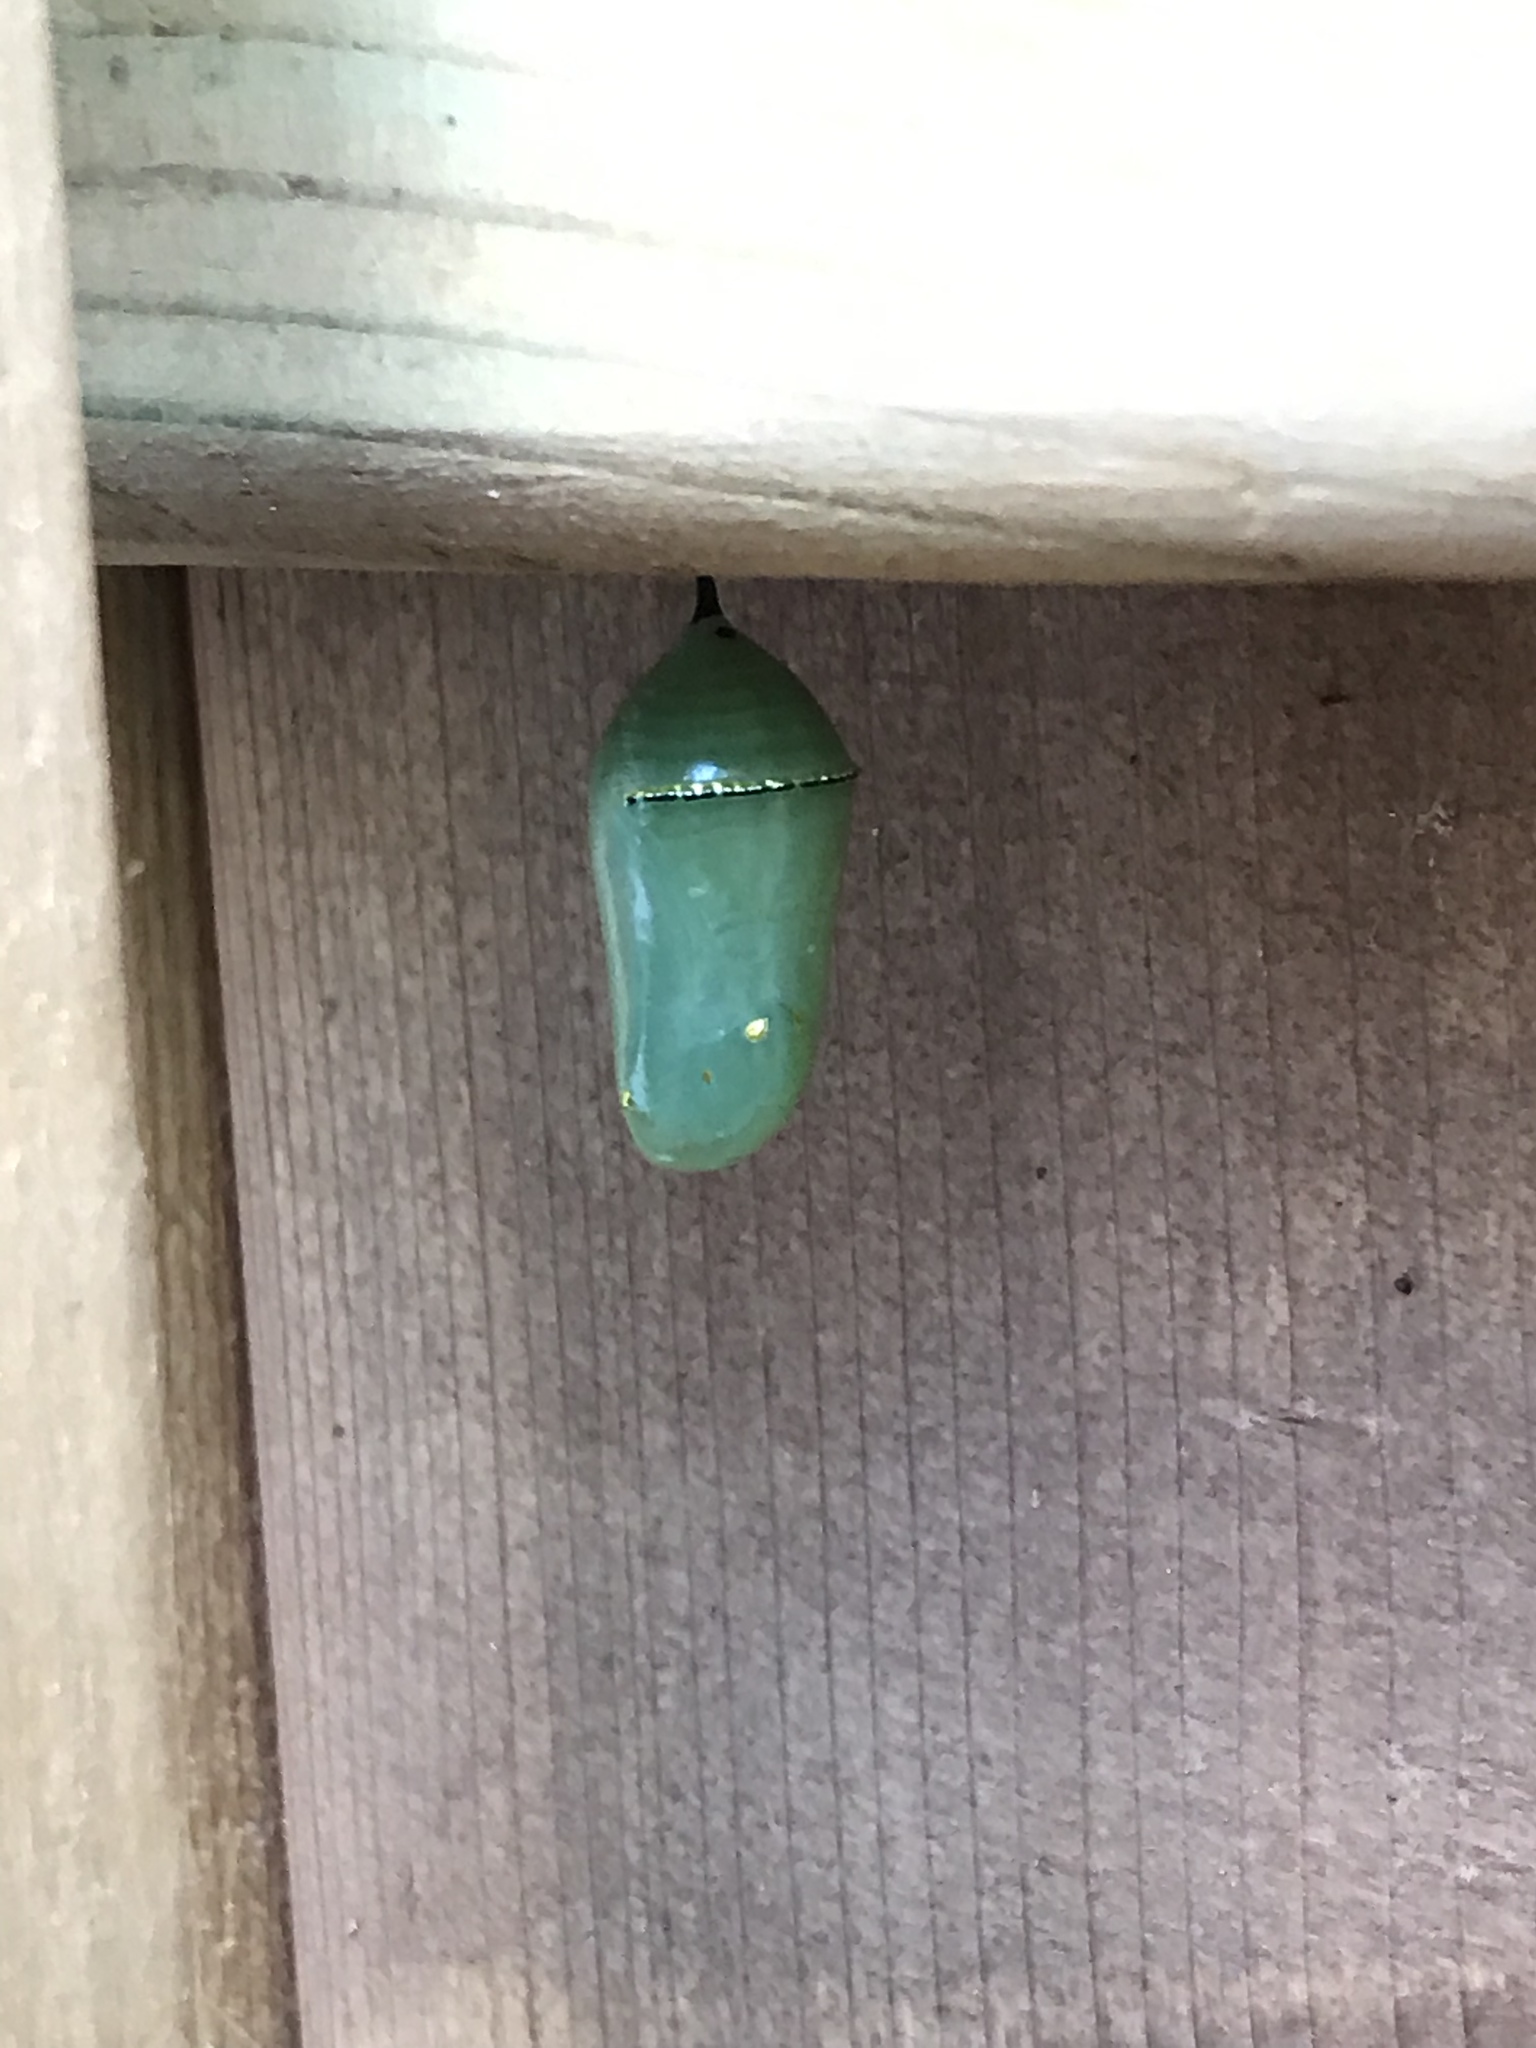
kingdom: Animalia
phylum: Arthropoda
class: Insecta
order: Lepidoptera
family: Nymphalidae
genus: Danaus
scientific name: Danaus plexippus
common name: Monarch
